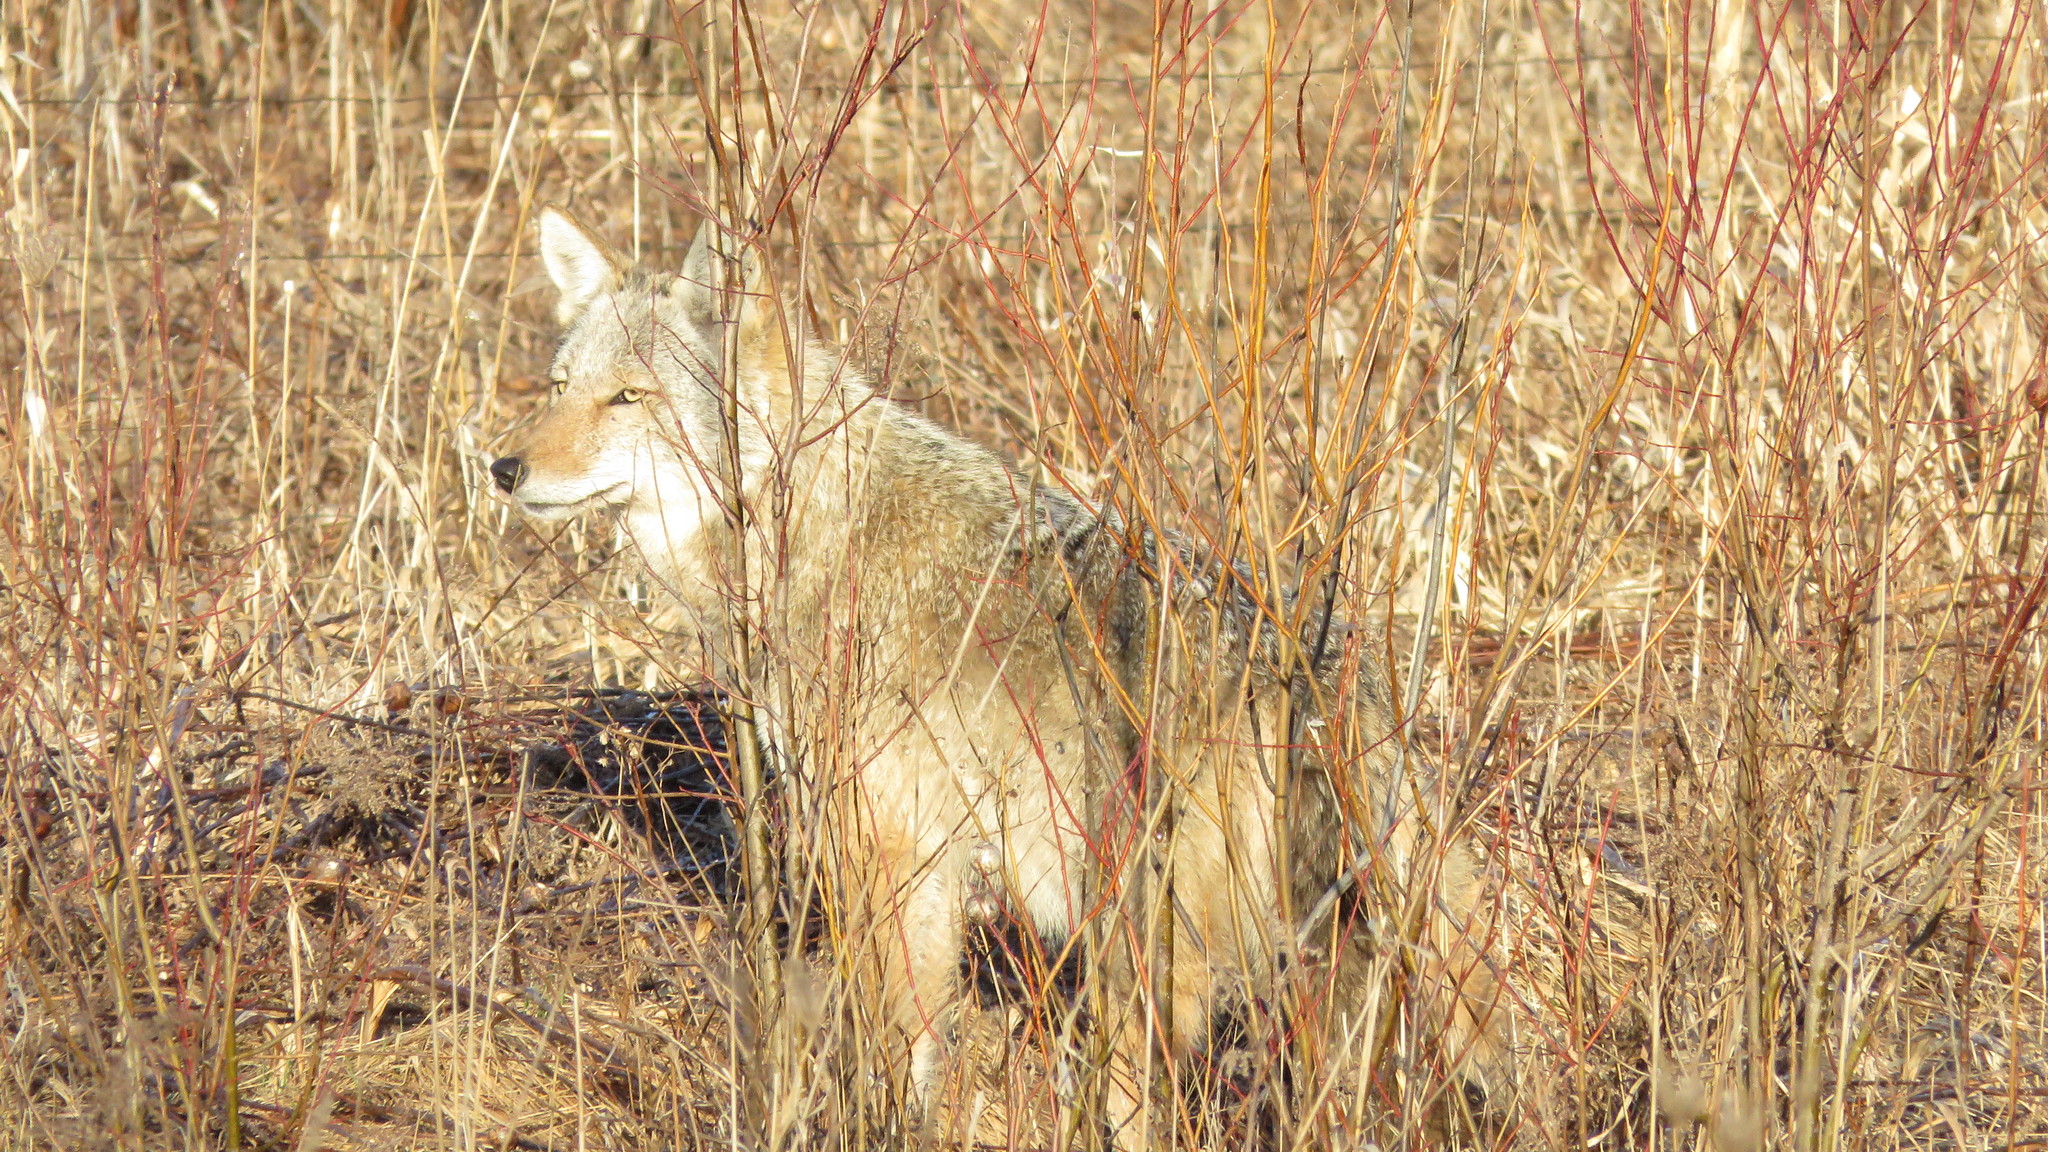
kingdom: Animalia
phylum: Chordata
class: Mammalia
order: Carnivora
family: Canidae
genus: Canis
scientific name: Canis latrans
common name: Coyote
